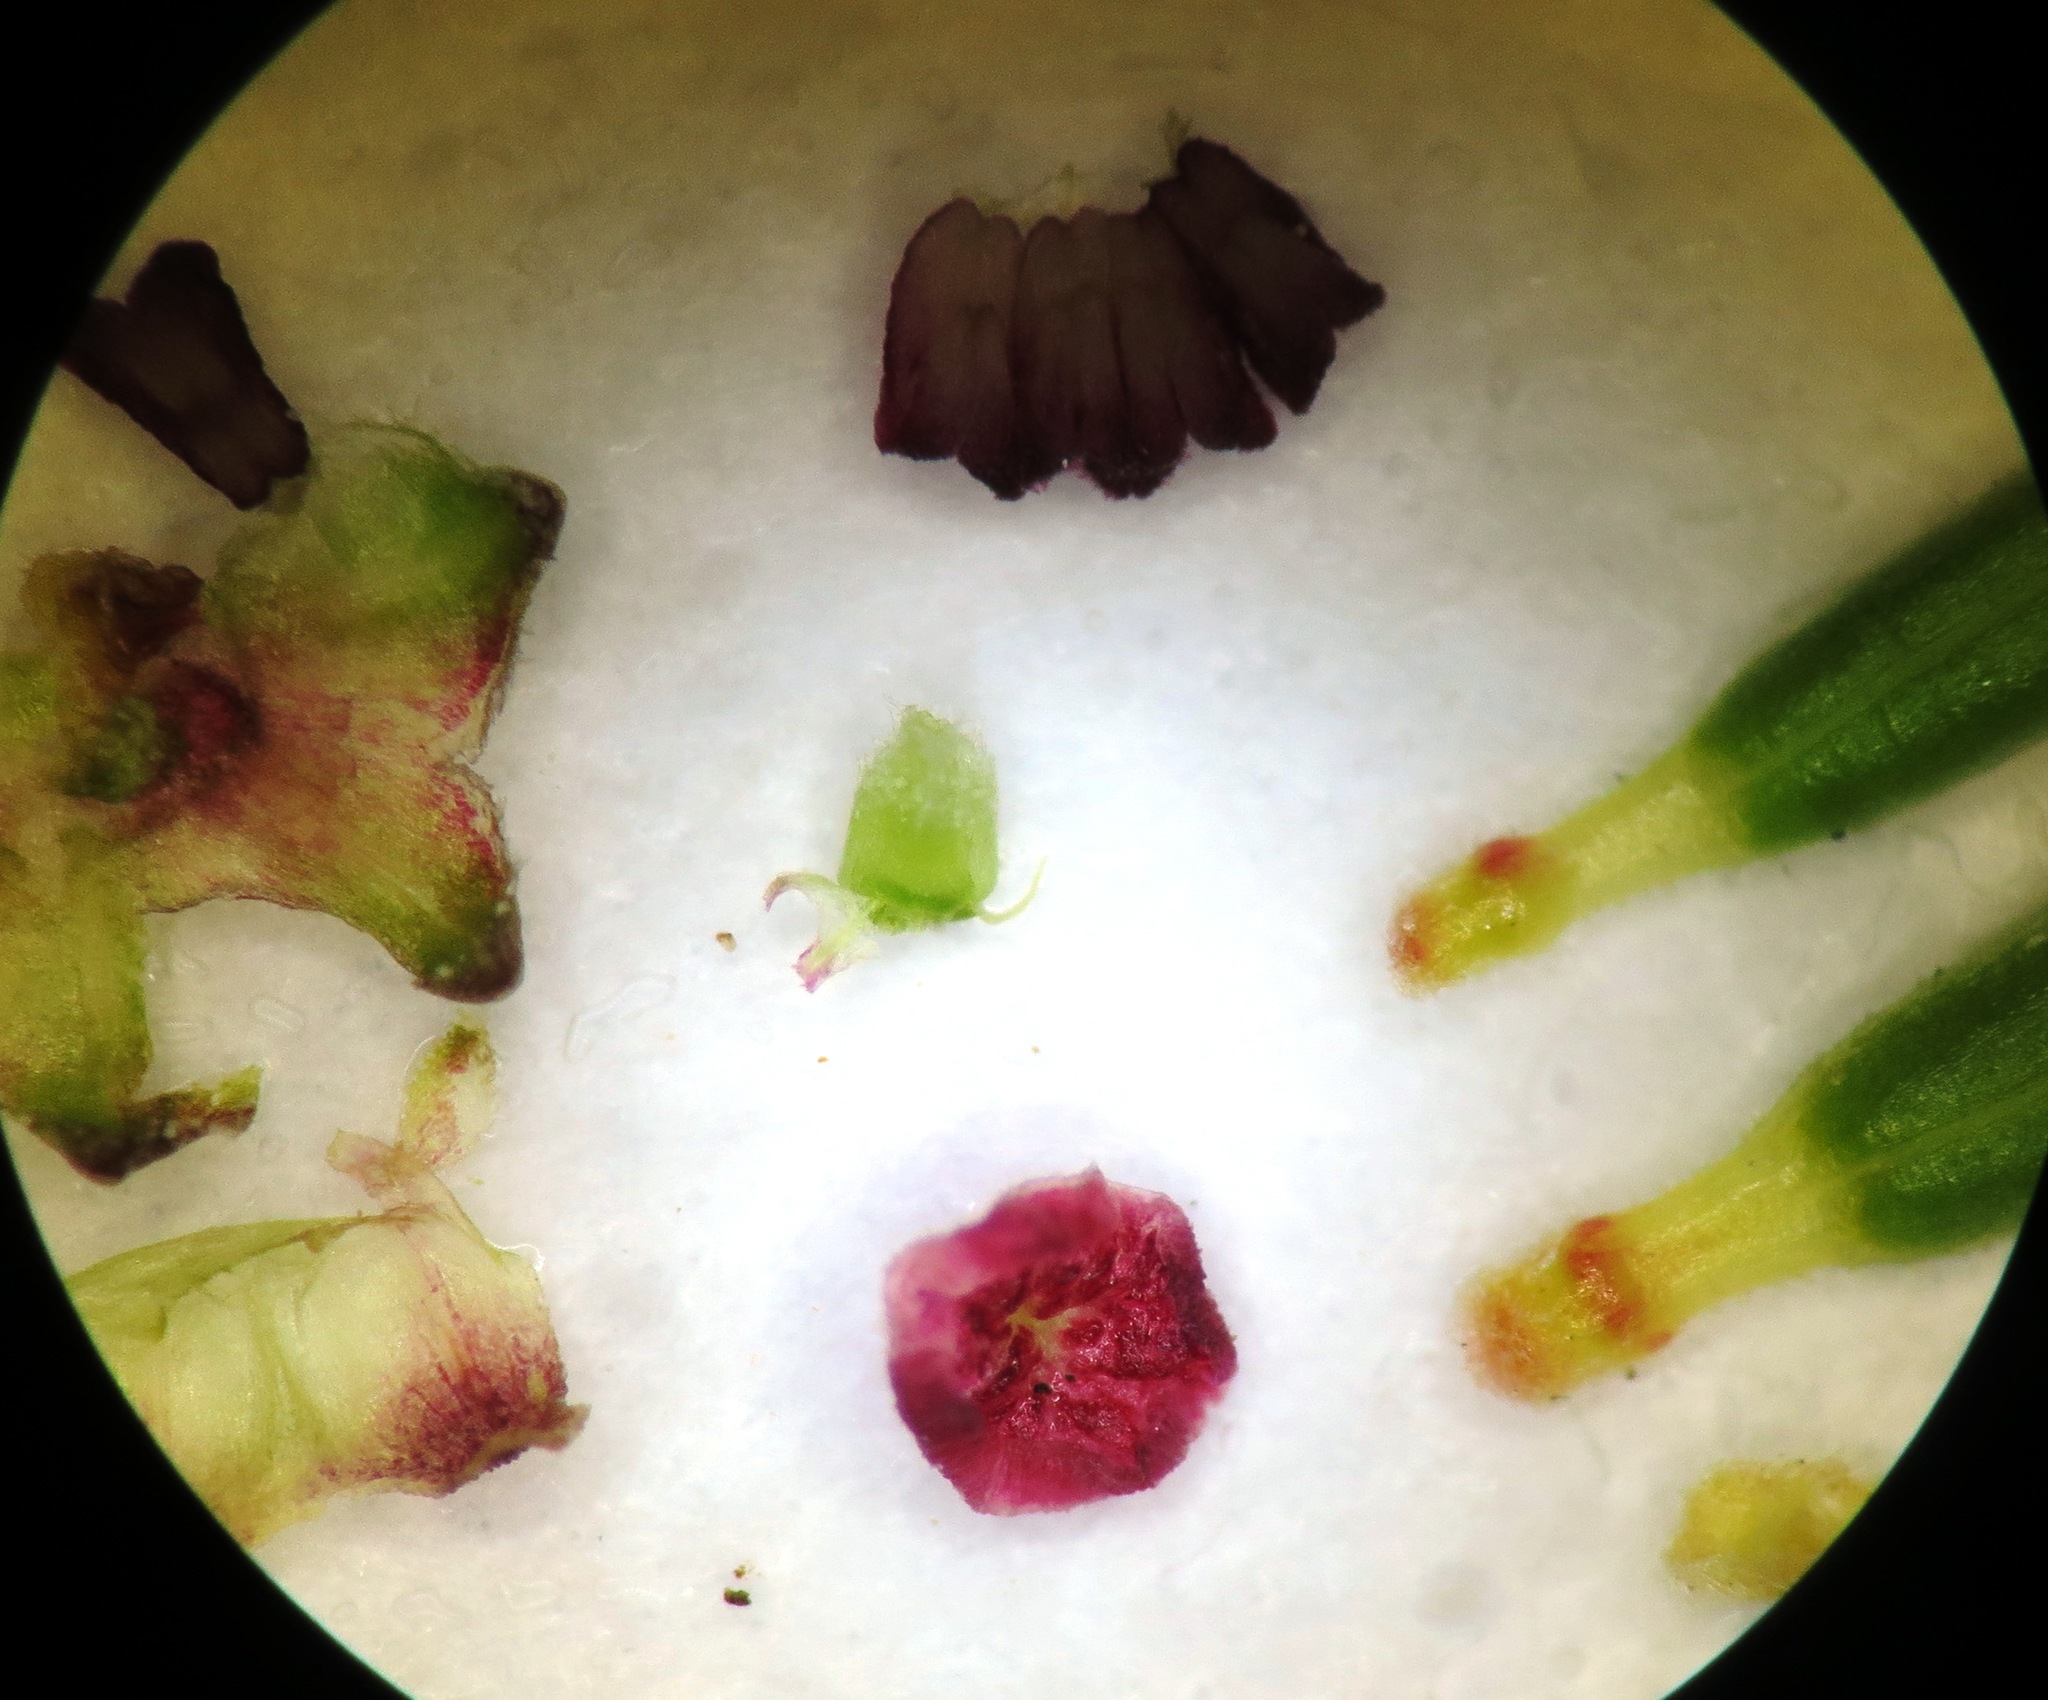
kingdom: Plantae
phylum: Tracheophyta
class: Magnoliopsida
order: Ericales
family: Ericaceae
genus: Erica
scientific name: Erica rugata
